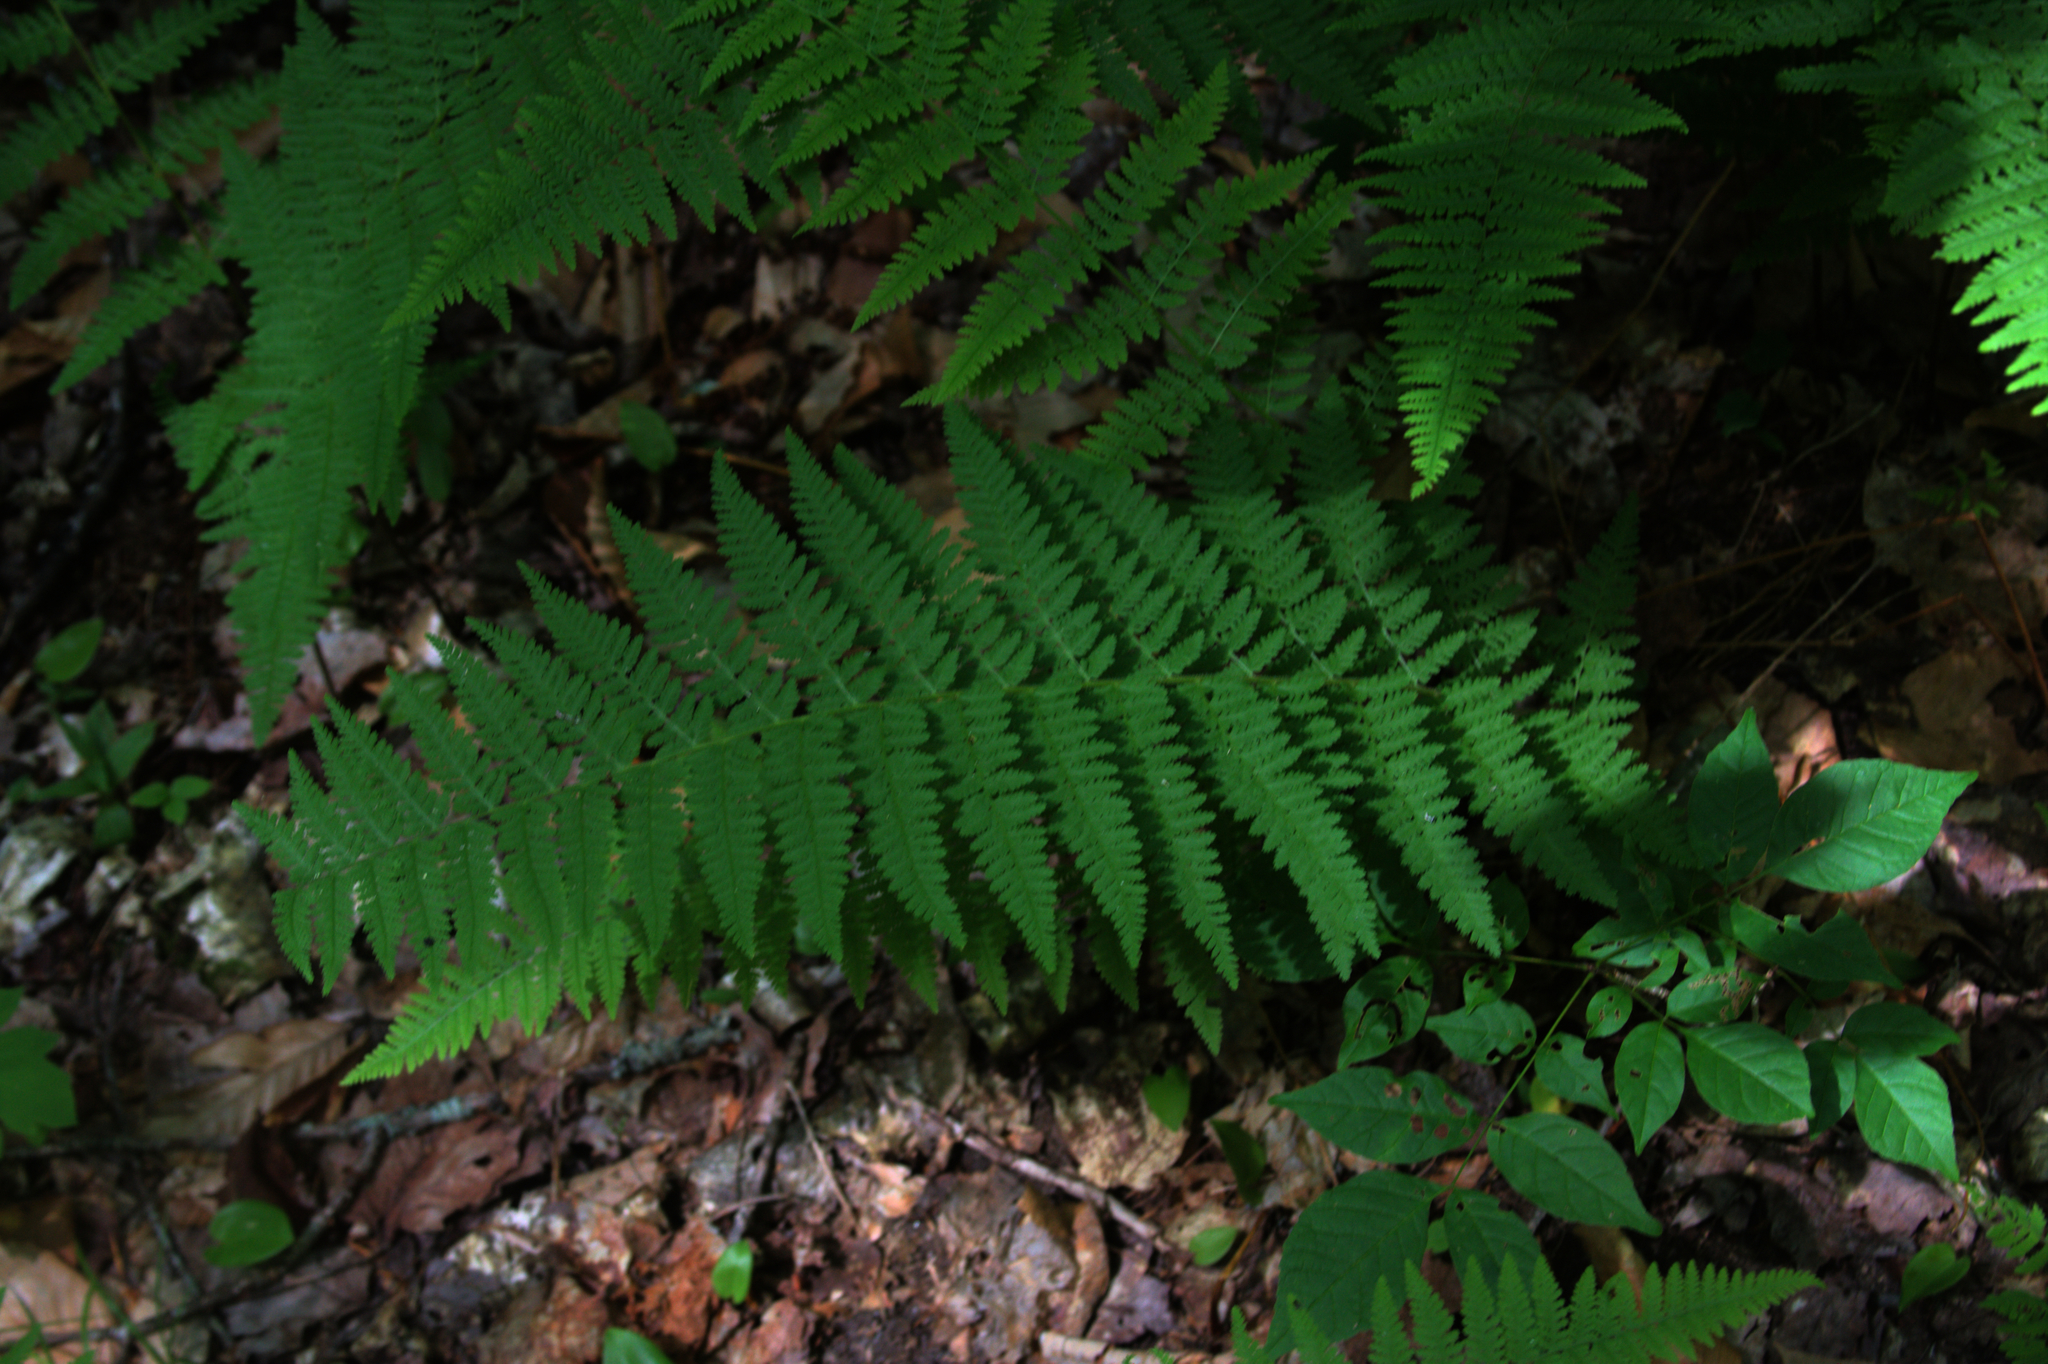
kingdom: Plantae
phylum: Tracheophyta
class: Polypodiopsida
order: Polypodiales
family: Dennstaedtiaceae
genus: Sitobolium
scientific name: Sitobolium punctilobum
